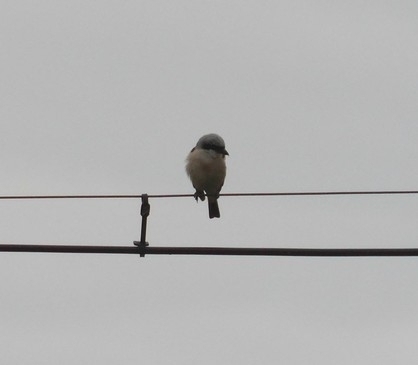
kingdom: Animalia
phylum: Chordata
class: Aves
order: Passeriformes
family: Laniidae
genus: Lanius
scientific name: Lanius collurio
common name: Red-backed shrike
